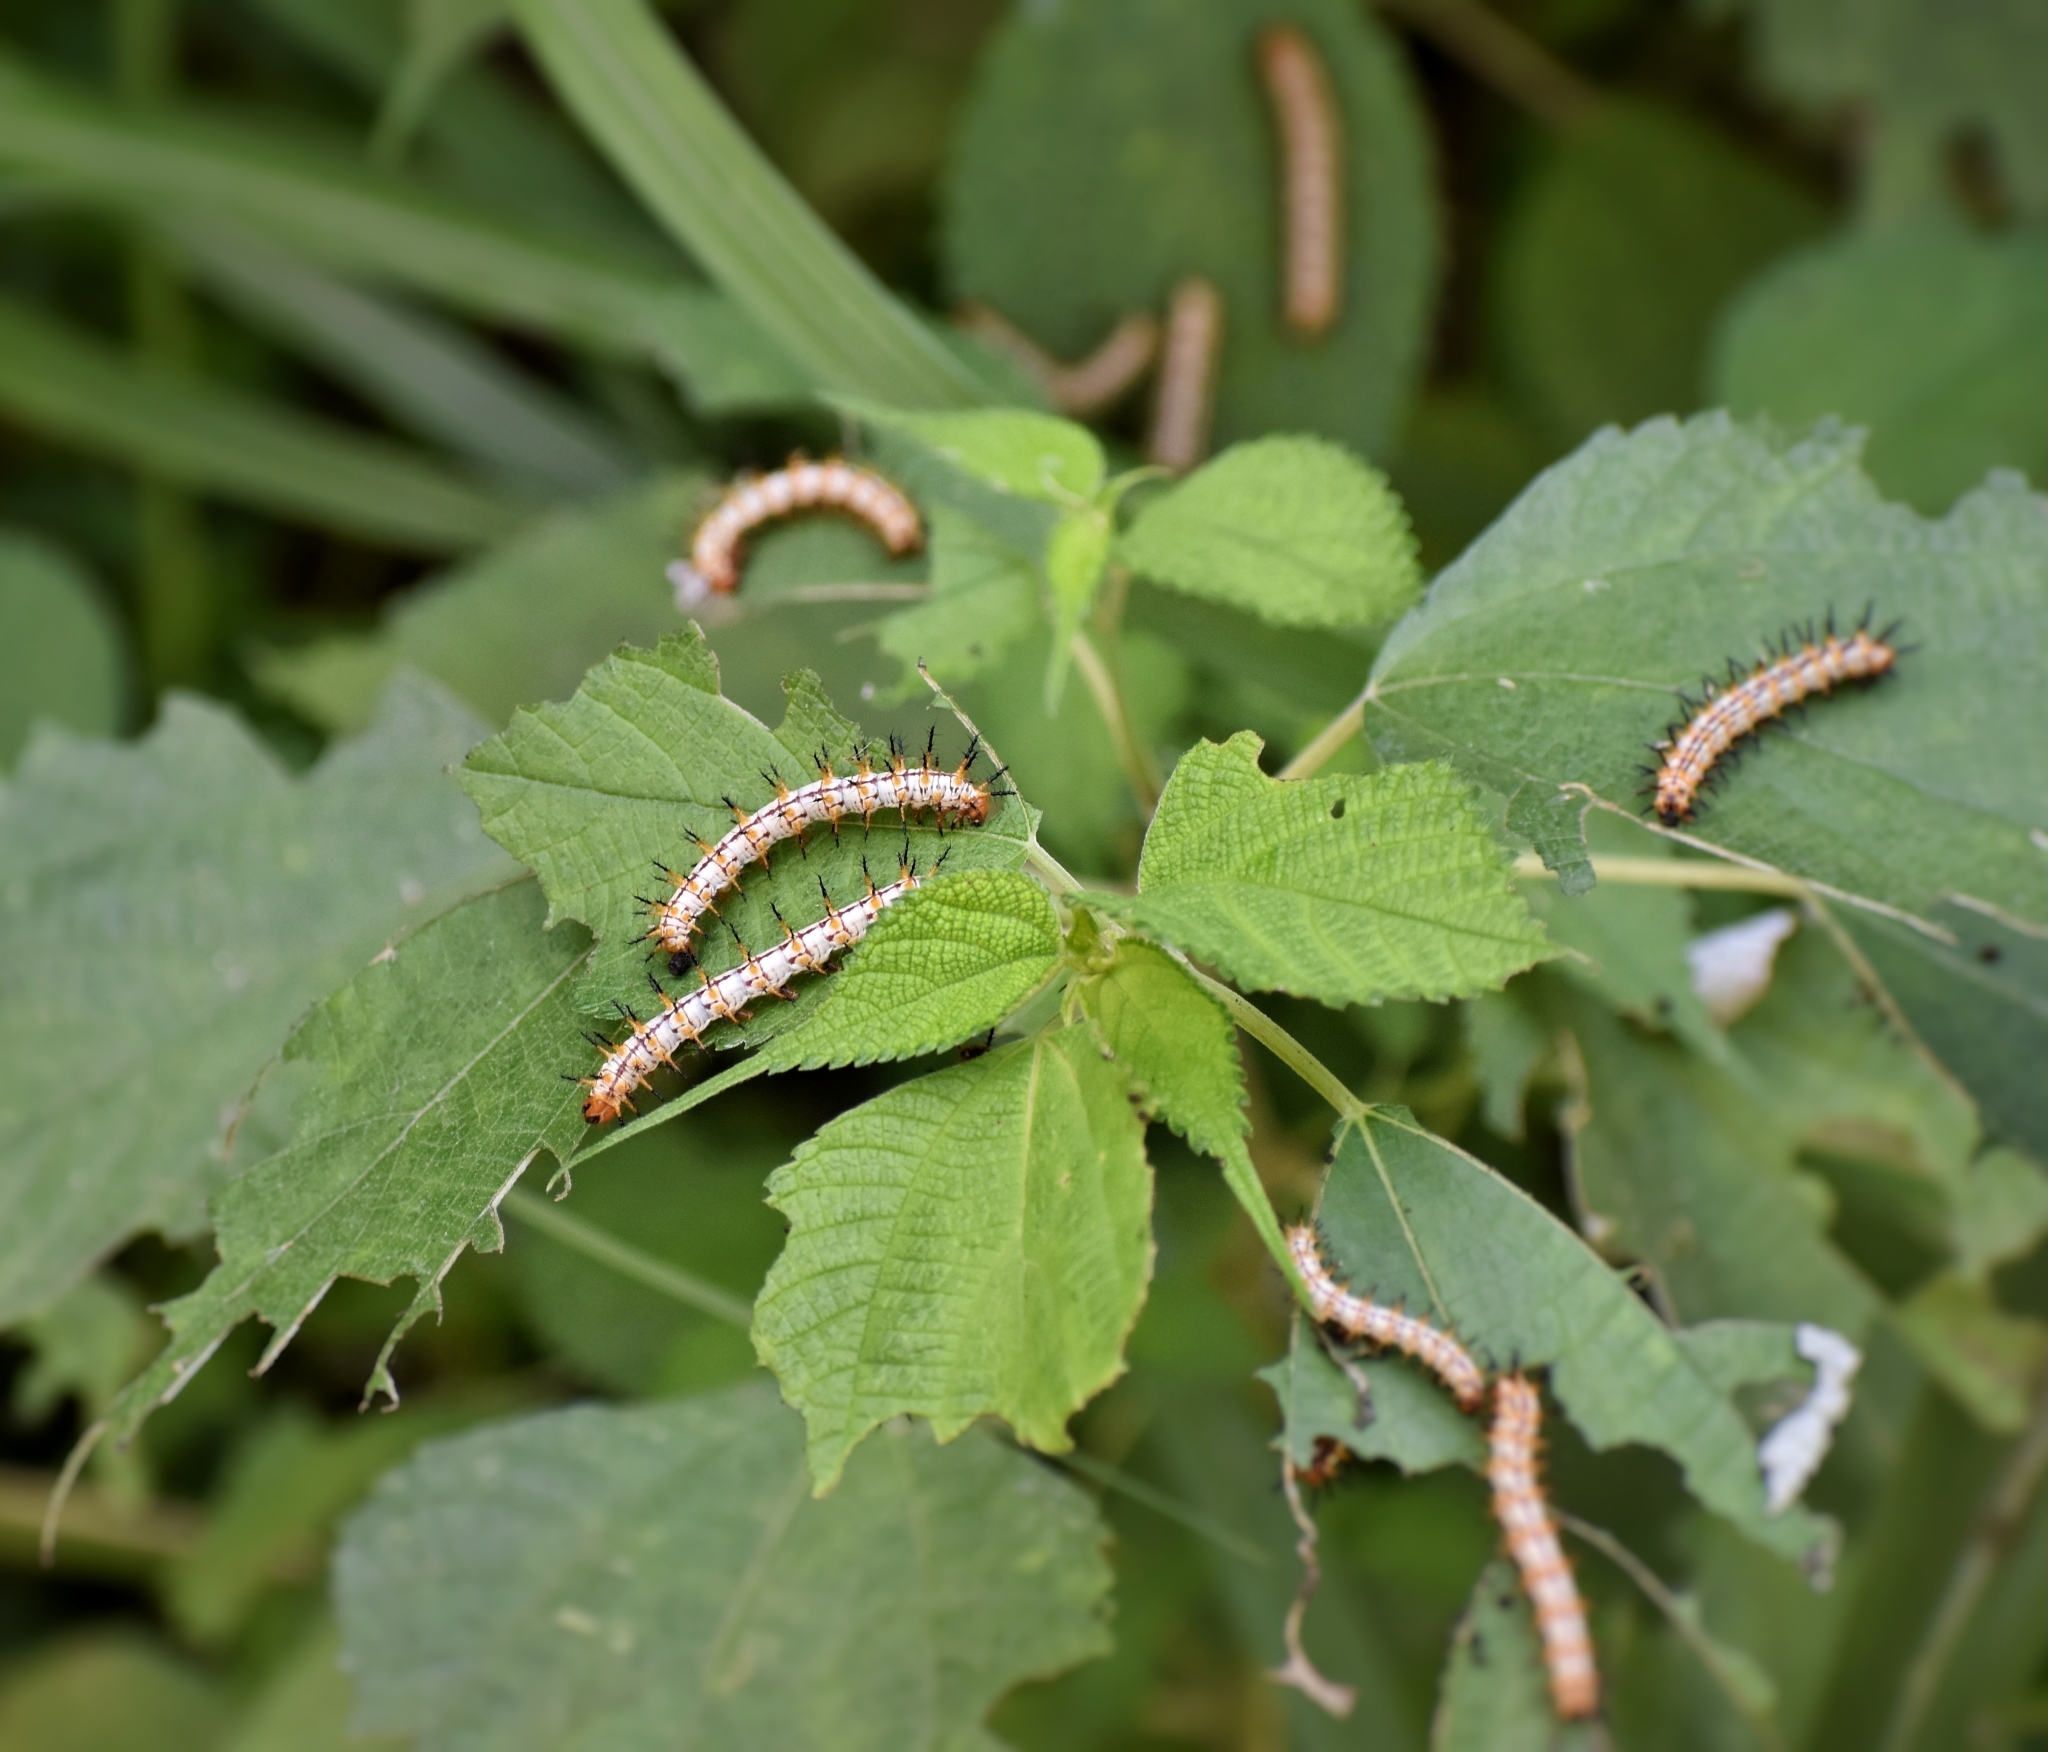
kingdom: Animalia
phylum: Arthropoda
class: Insecta
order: Lepidoptera
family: Nymphalidae
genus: Acraea
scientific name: Acraea Telchinia issoria
